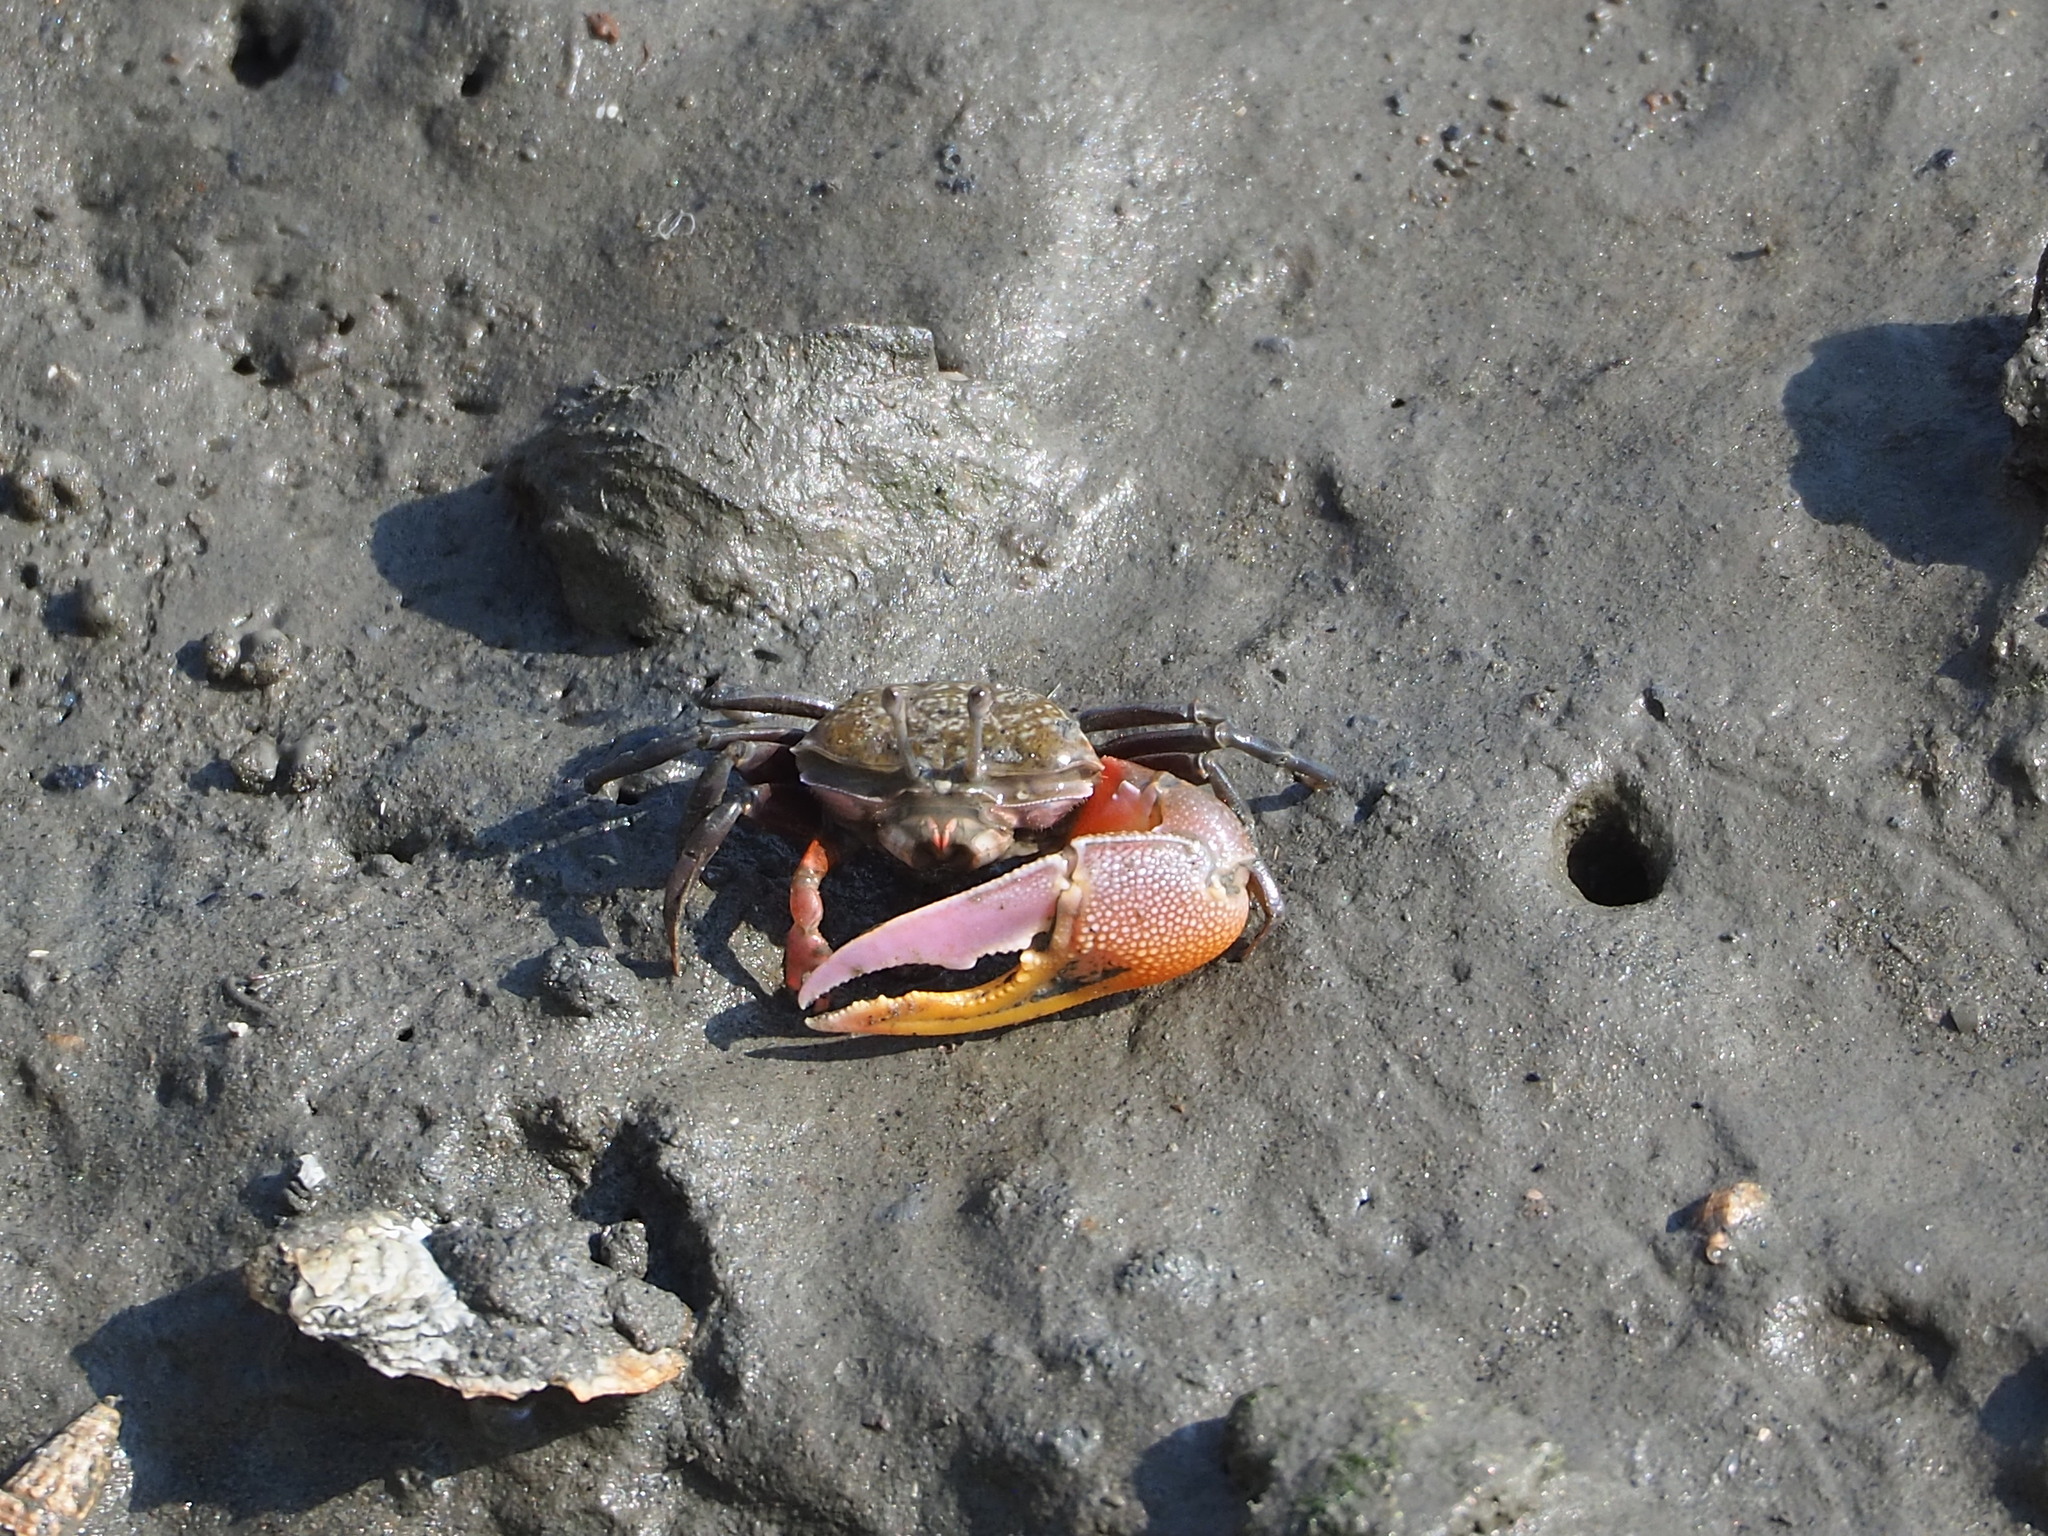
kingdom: Animalia
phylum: Arthropoda
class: Malacostraca
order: Decapoda
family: Ocypodidae
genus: Gelasimus
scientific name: Gelasimus borealis
